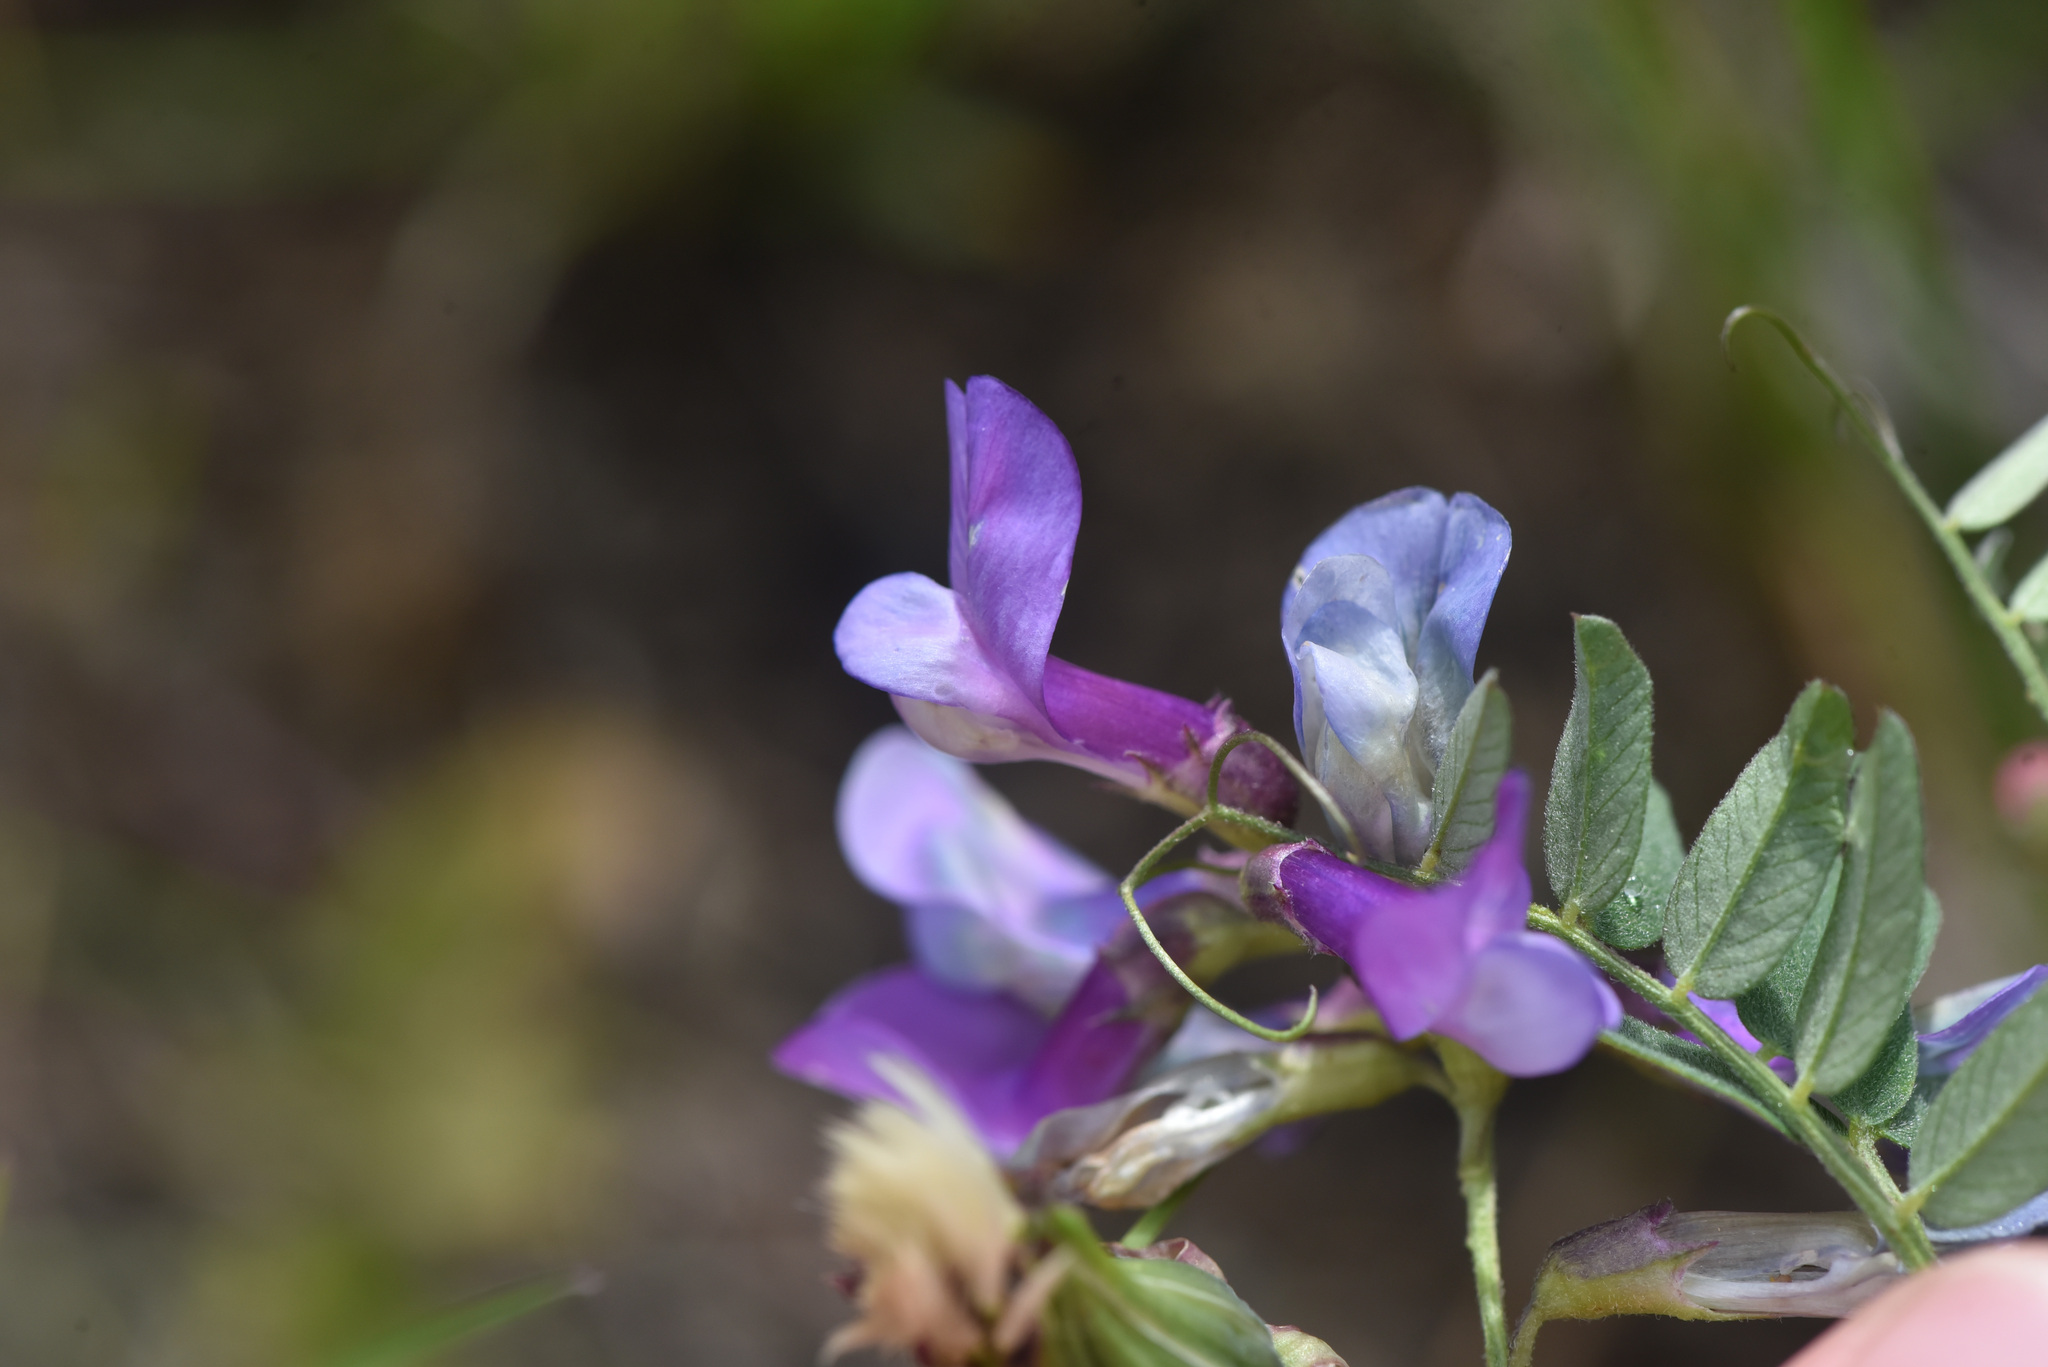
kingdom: Plantae
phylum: Tracheophyta
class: Magnoliopsida
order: Fabales
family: Fabaceae
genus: Vicia
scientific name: Vicia americana
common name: American vetch
